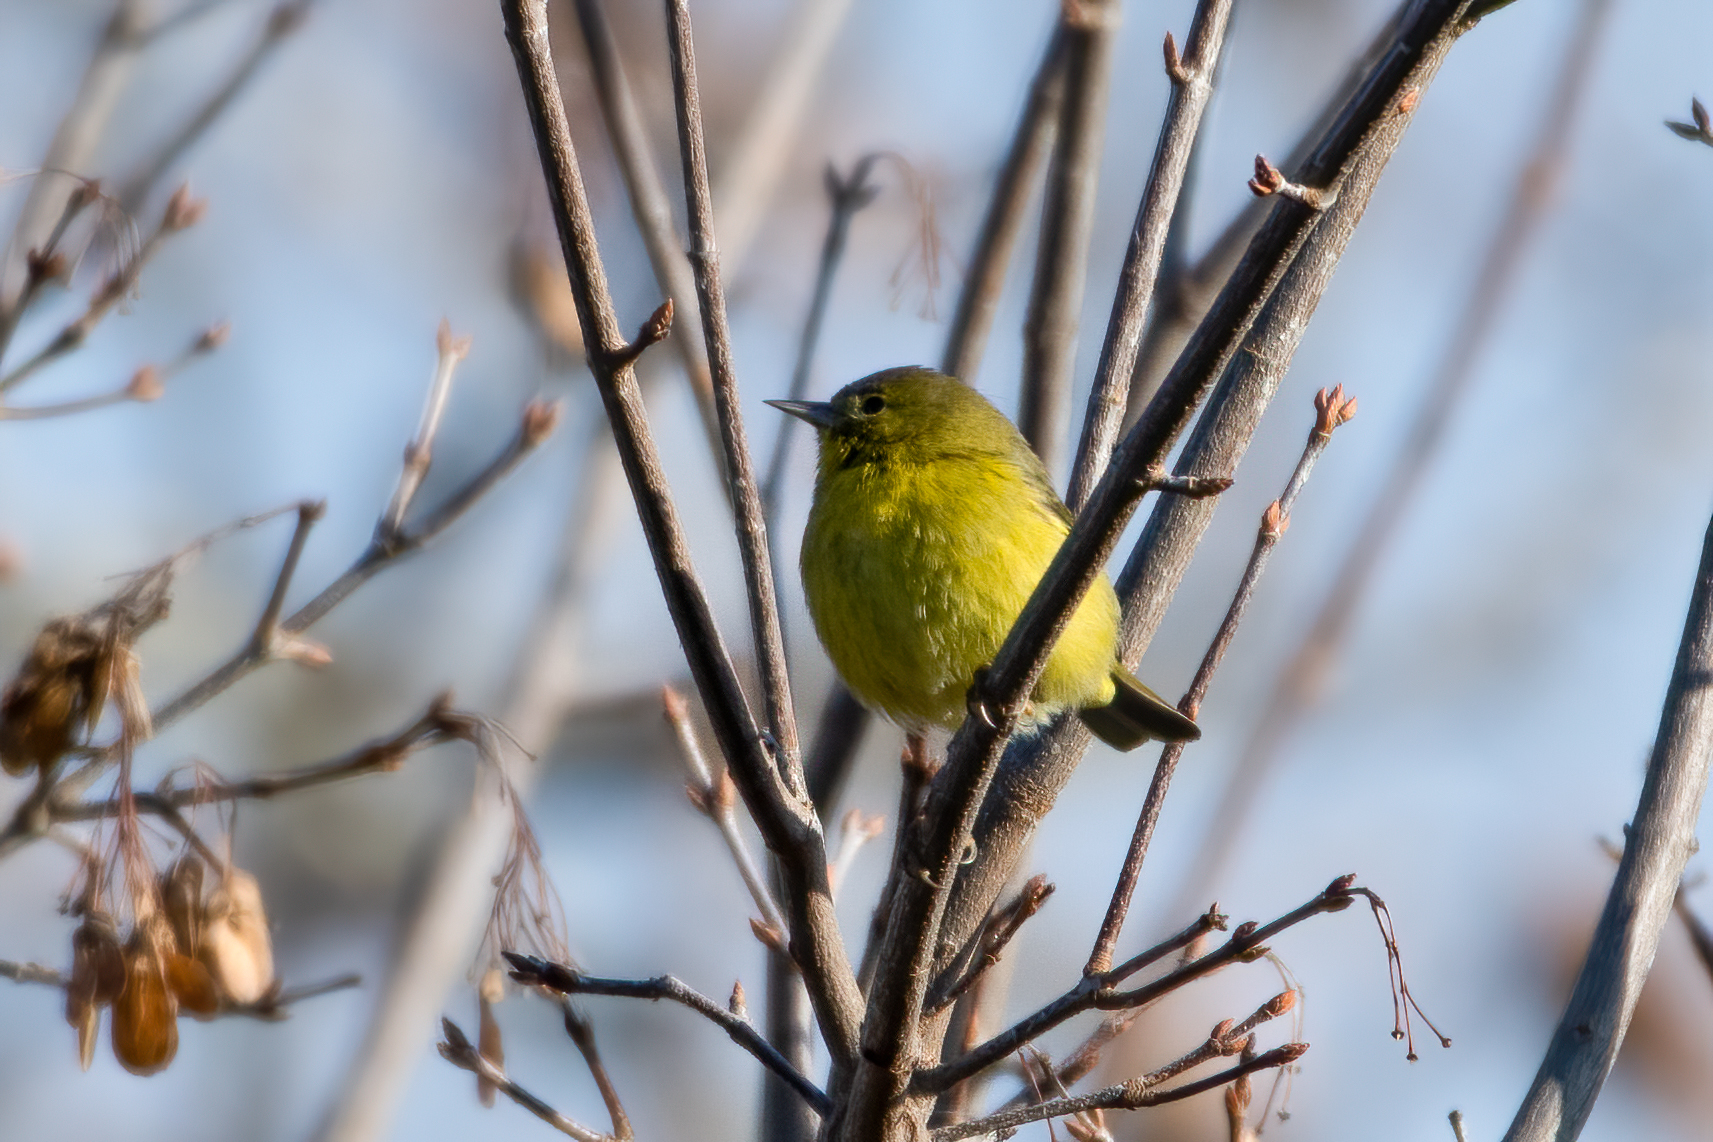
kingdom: Animalia
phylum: Chordata
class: Aves
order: Passeriformes
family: Parulidae
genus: Leiothlypis
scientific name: Leiothlypis celata
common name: Orange-crowned warbler
